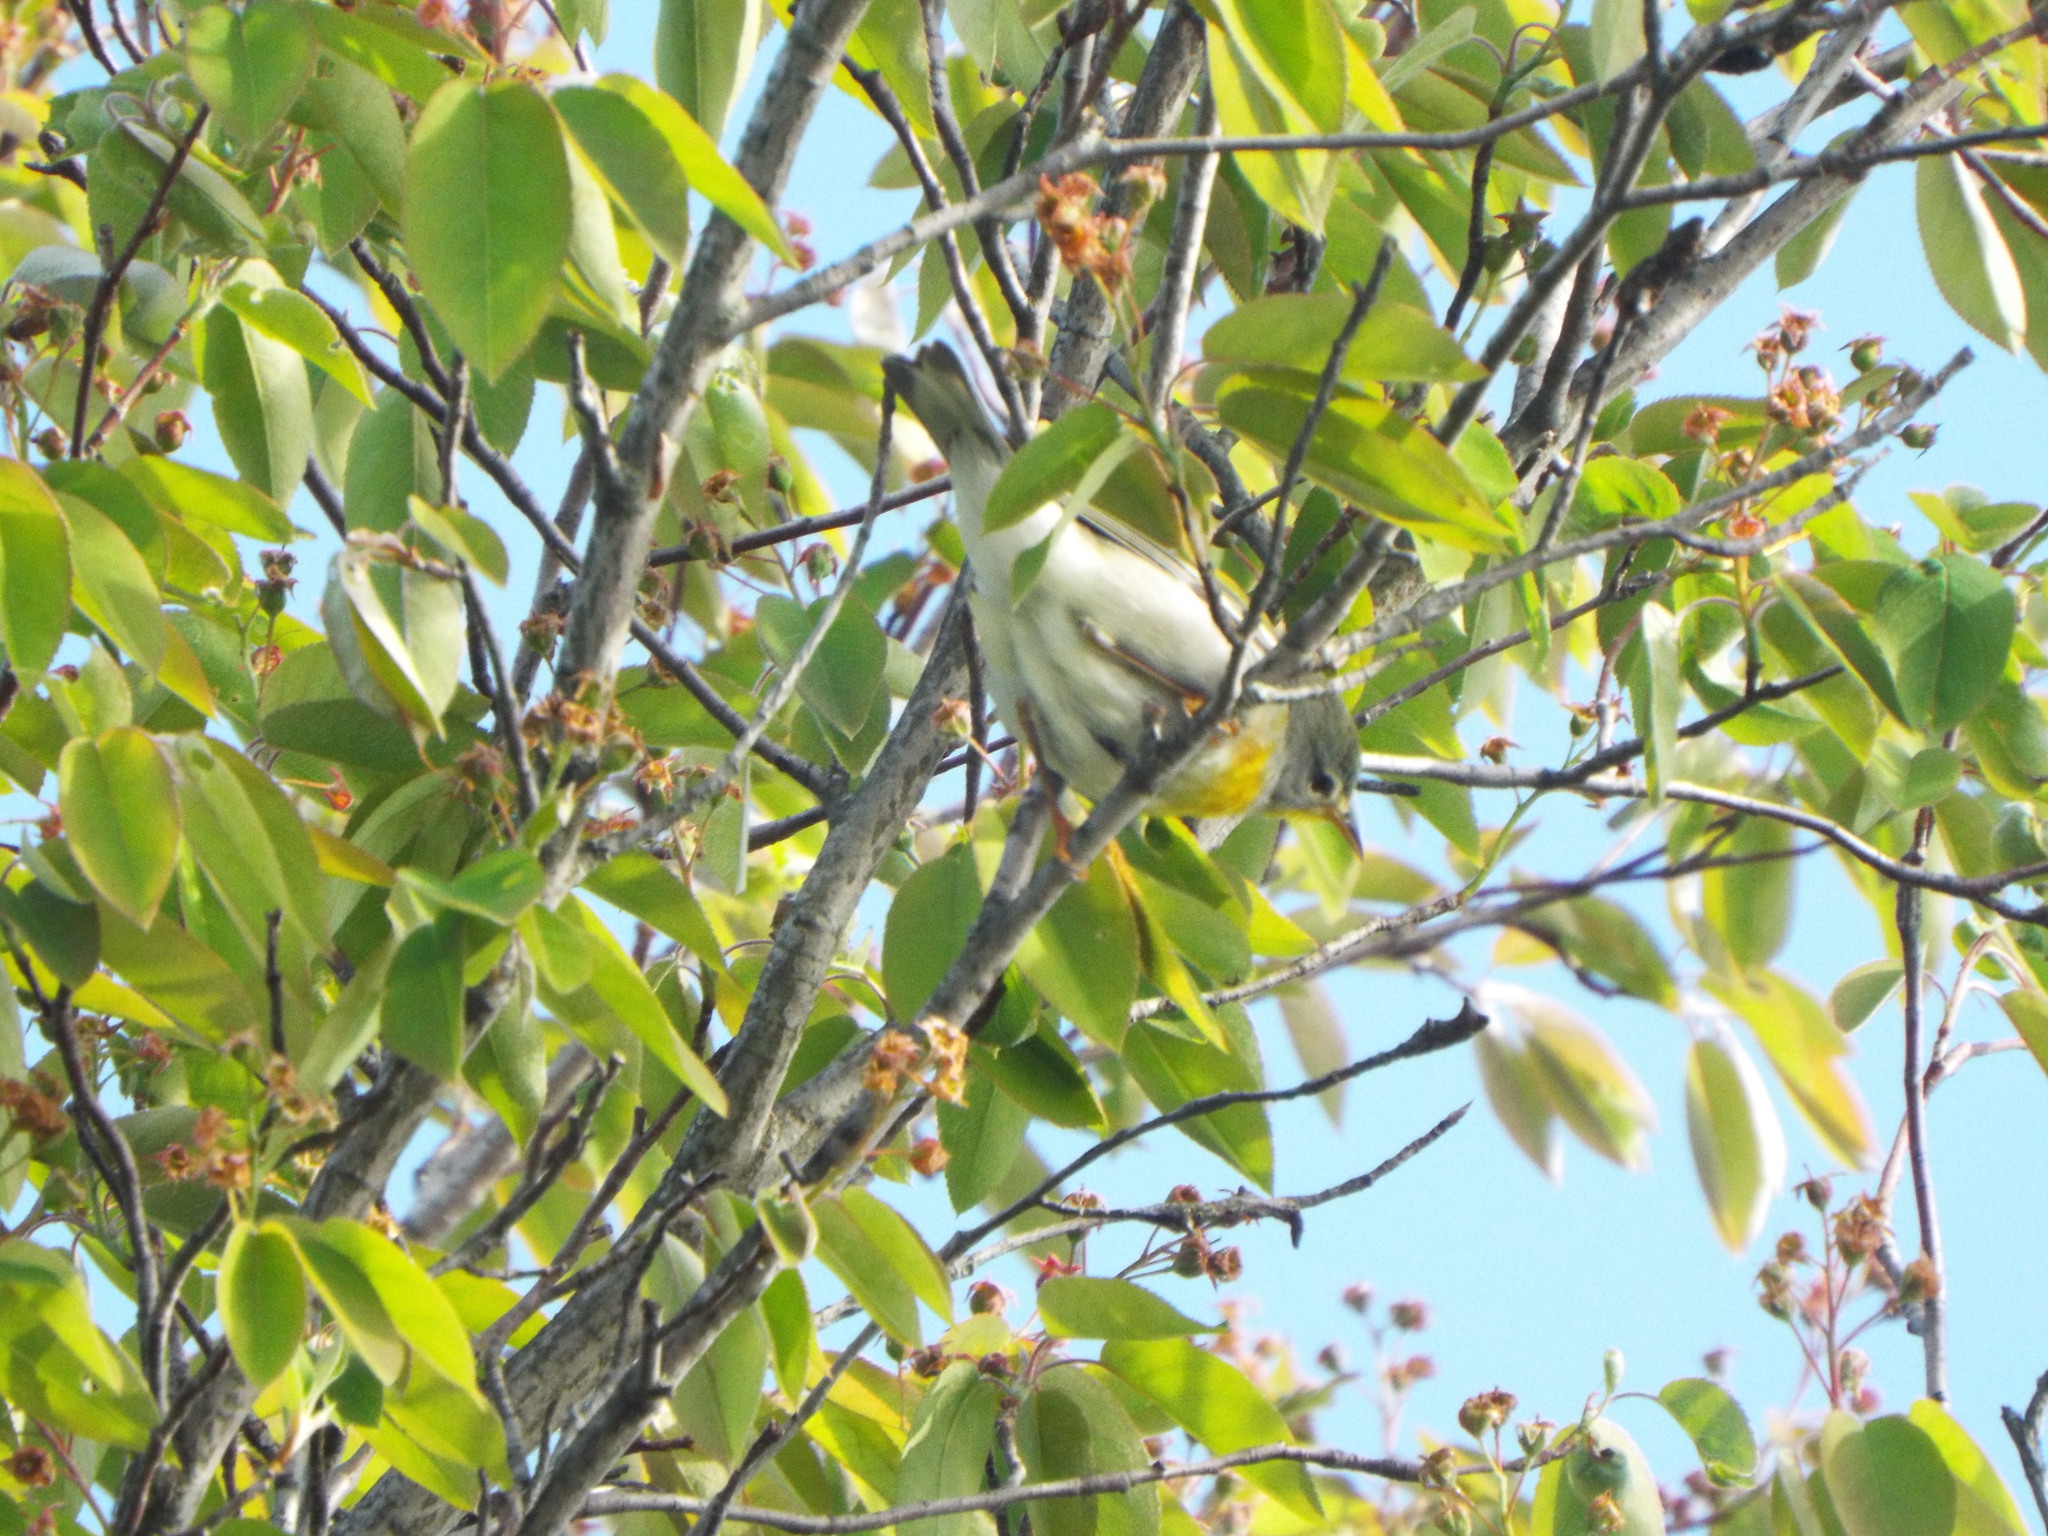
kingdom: Animalia
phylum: Chordata
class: Aves
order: Passeriformes
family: Parulidae
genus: Setophaga
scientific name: Setophaga americana
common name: Northern parula
